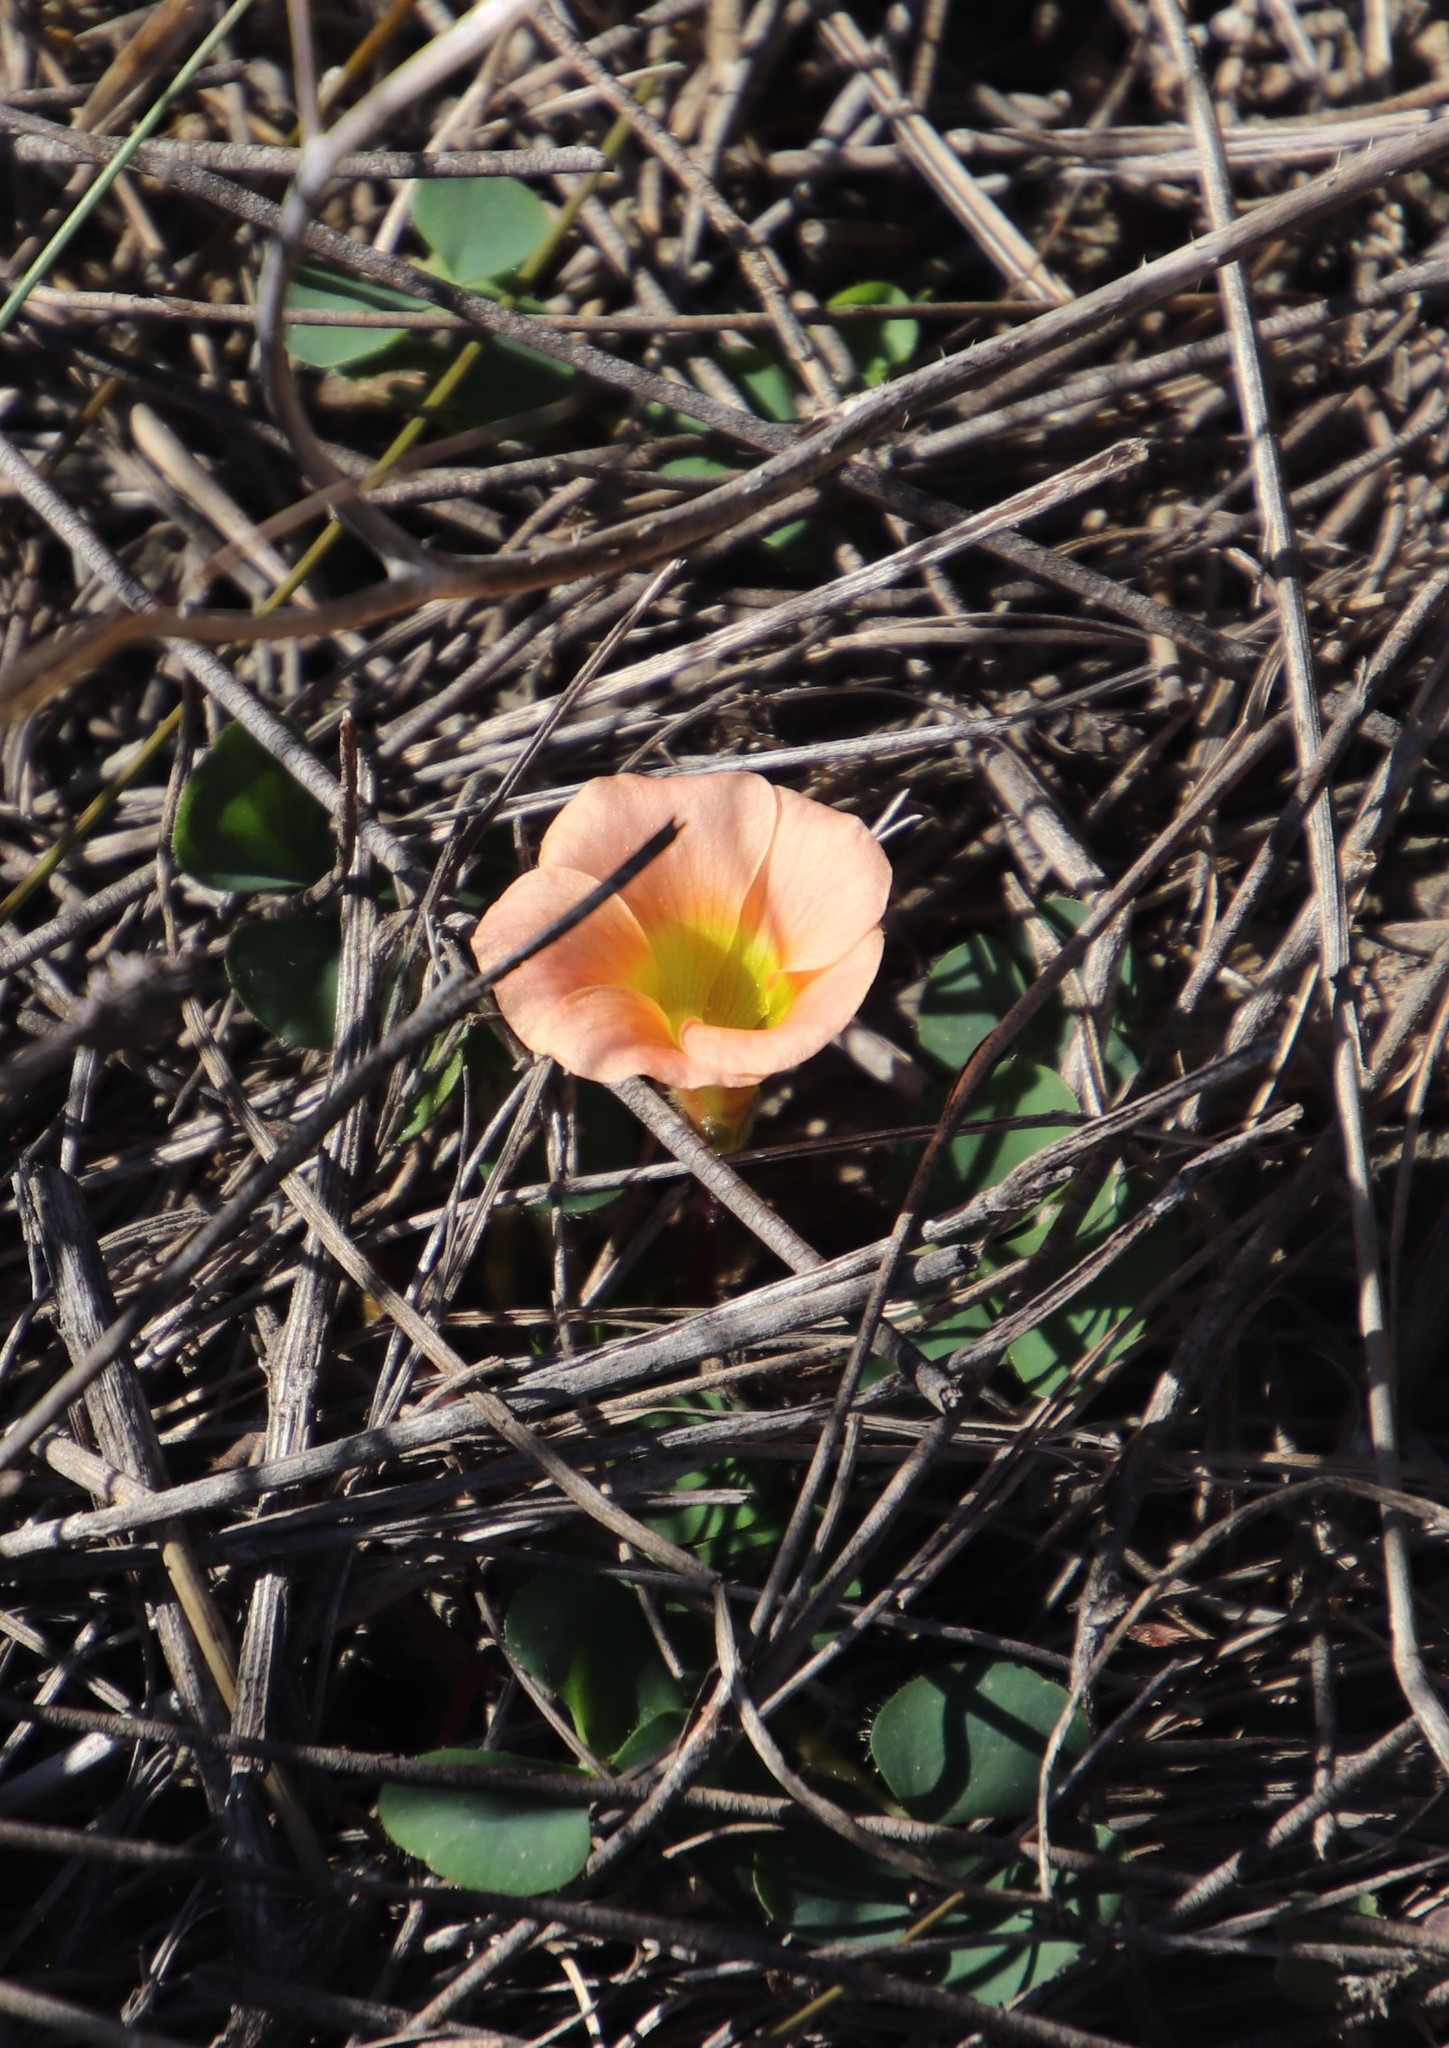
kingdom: Plantae
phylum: Tracheophyta
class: Magnoliopsida
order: Oxalidales
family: Oxalidaceae
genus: Oxalis
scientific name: Oxalis purpurea
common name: Purple woodsorrel
